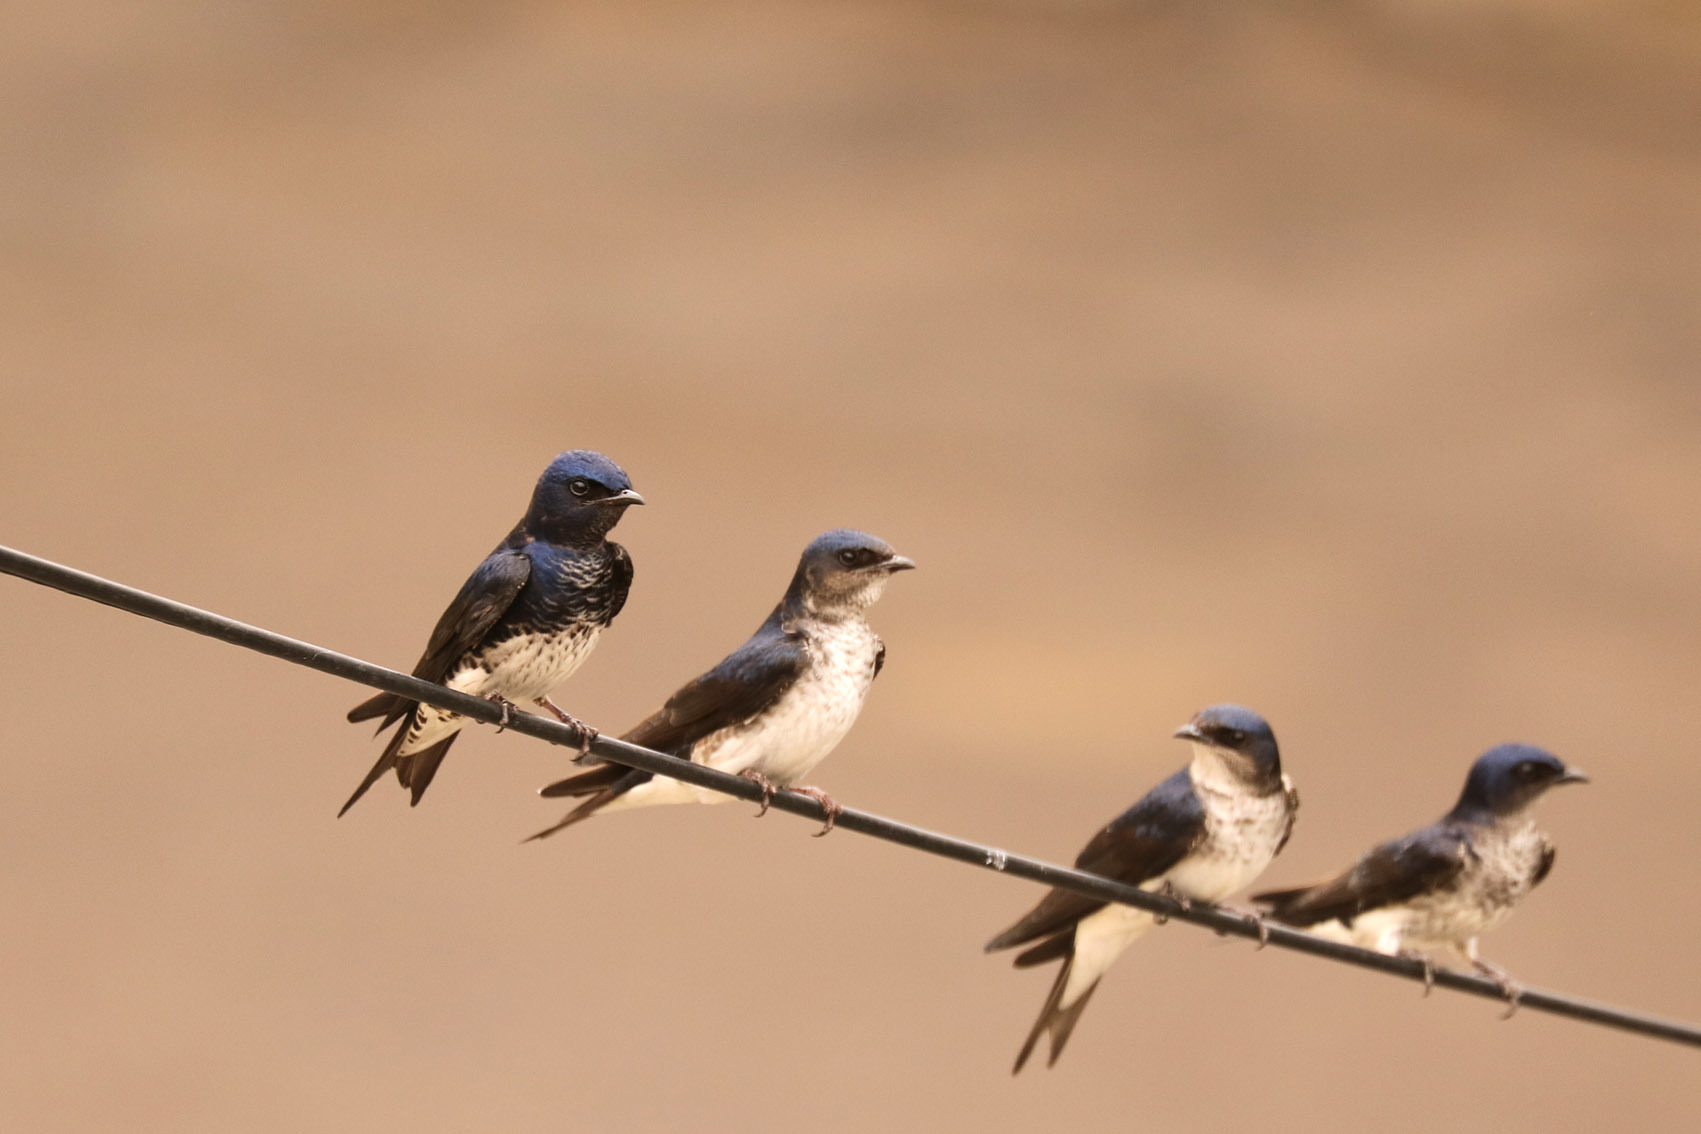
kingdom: Animalia
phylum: Chordata
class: Aves
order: Passeriformes
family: Hirundinidae
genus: Progne
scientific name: Progne chalybea
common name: Grey-breasted martin
